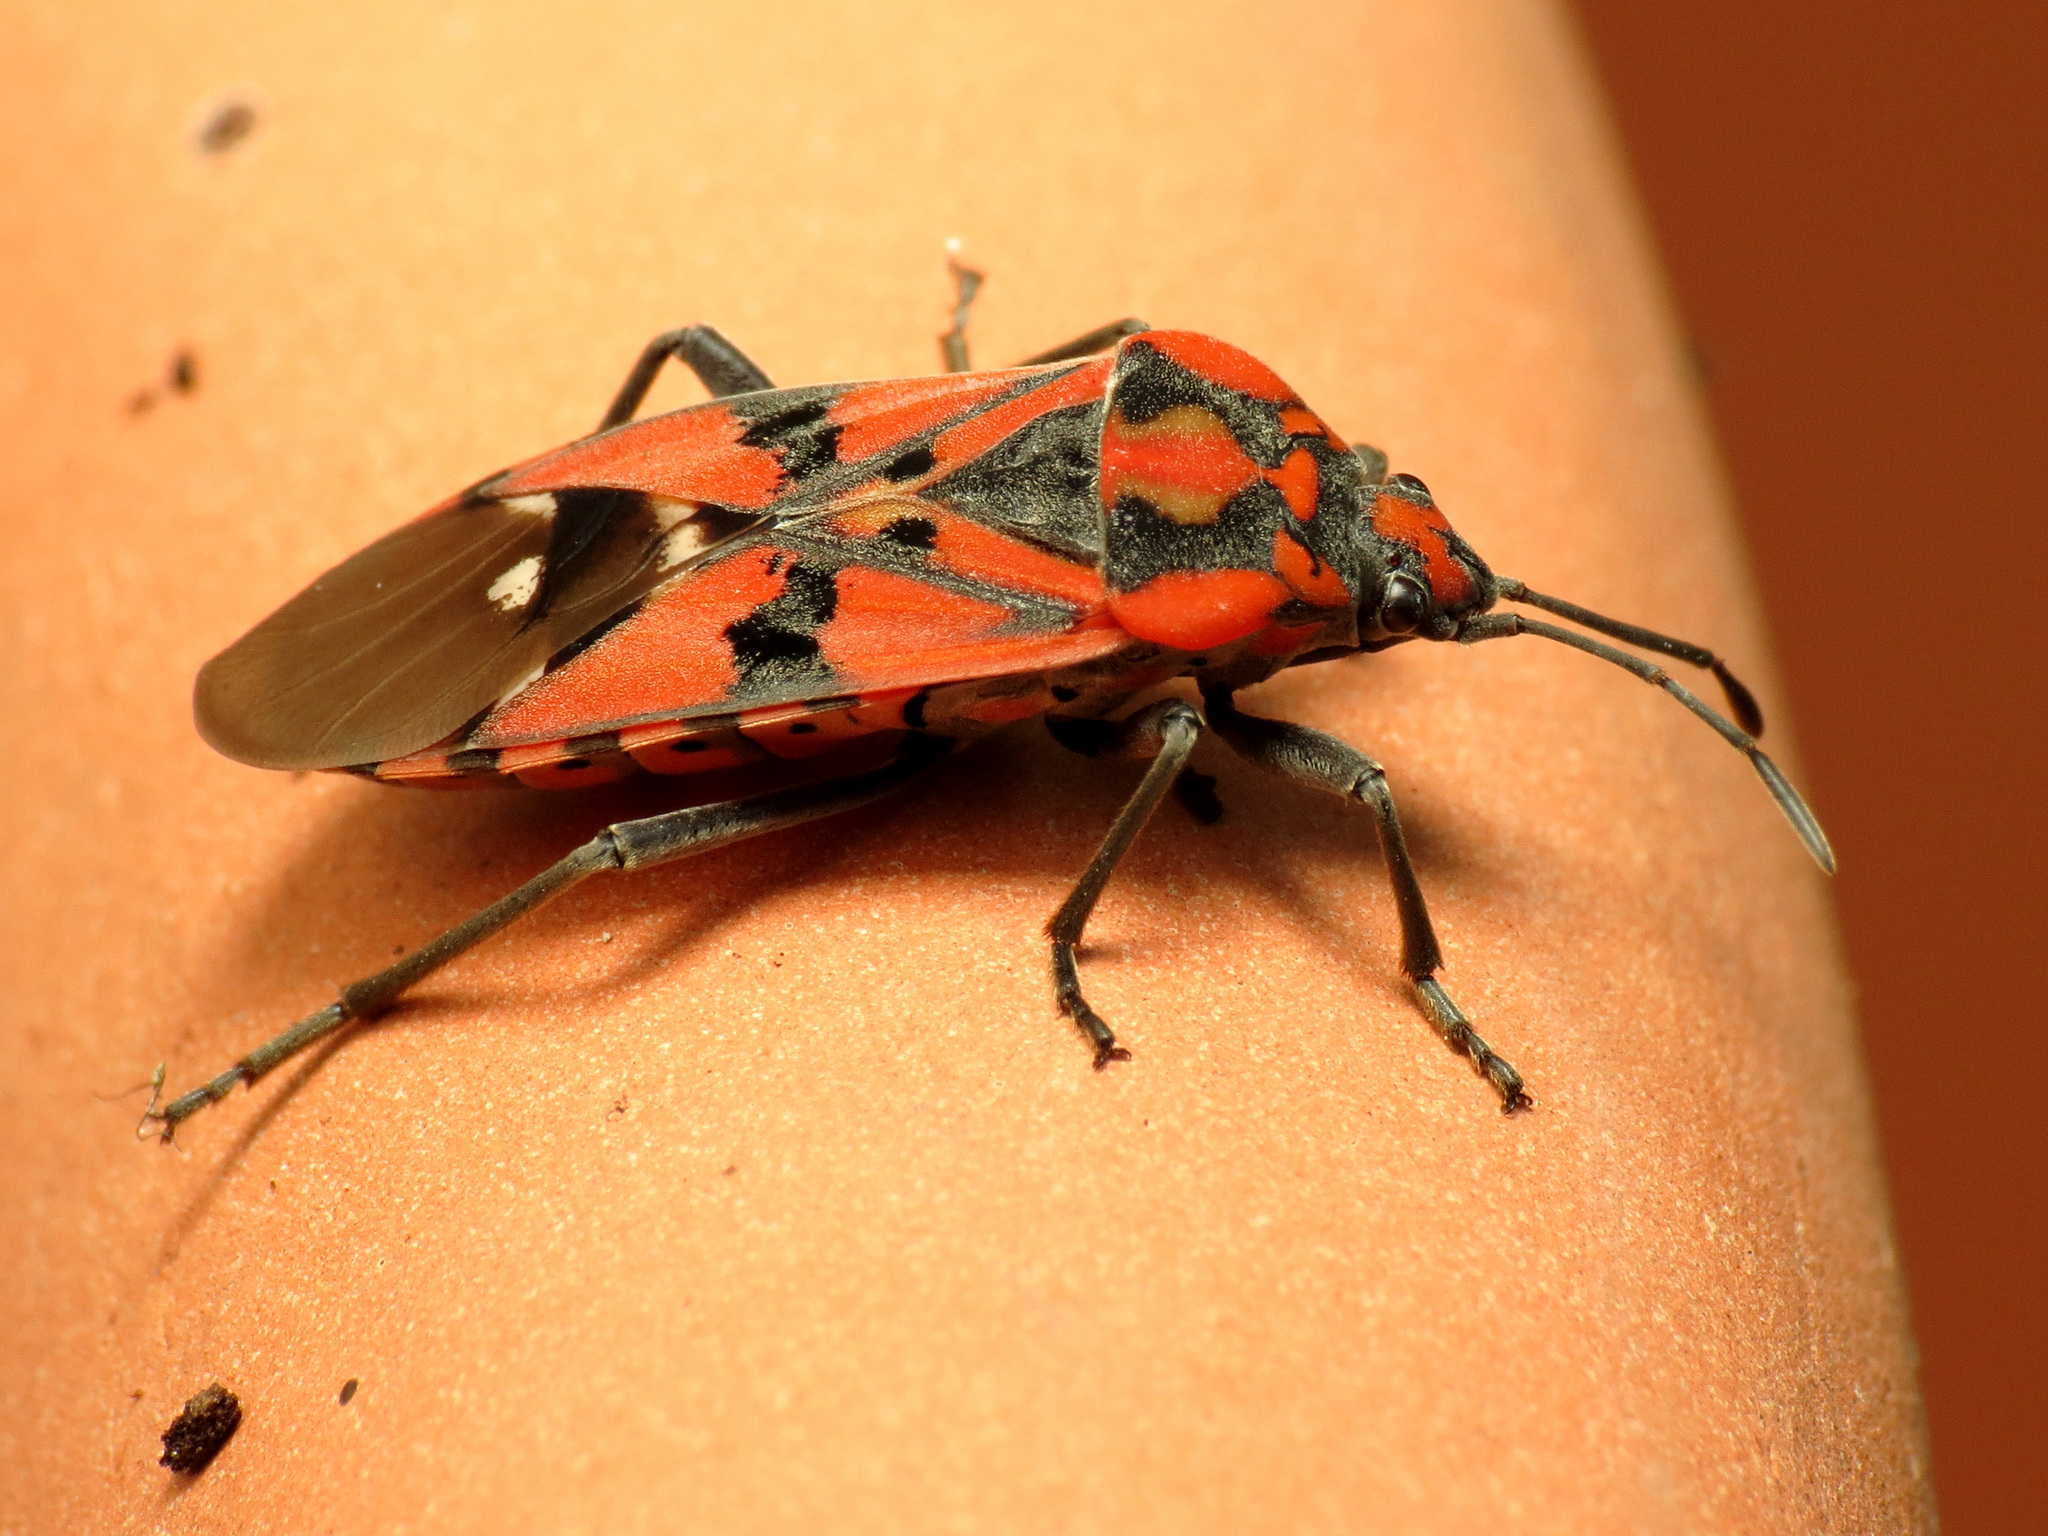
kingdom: Animalia
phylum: Arthropoda
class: Insecta
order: Hemiptera
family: Lygaeidae
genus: Spilostethus
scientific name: Spilostethus pandurus
